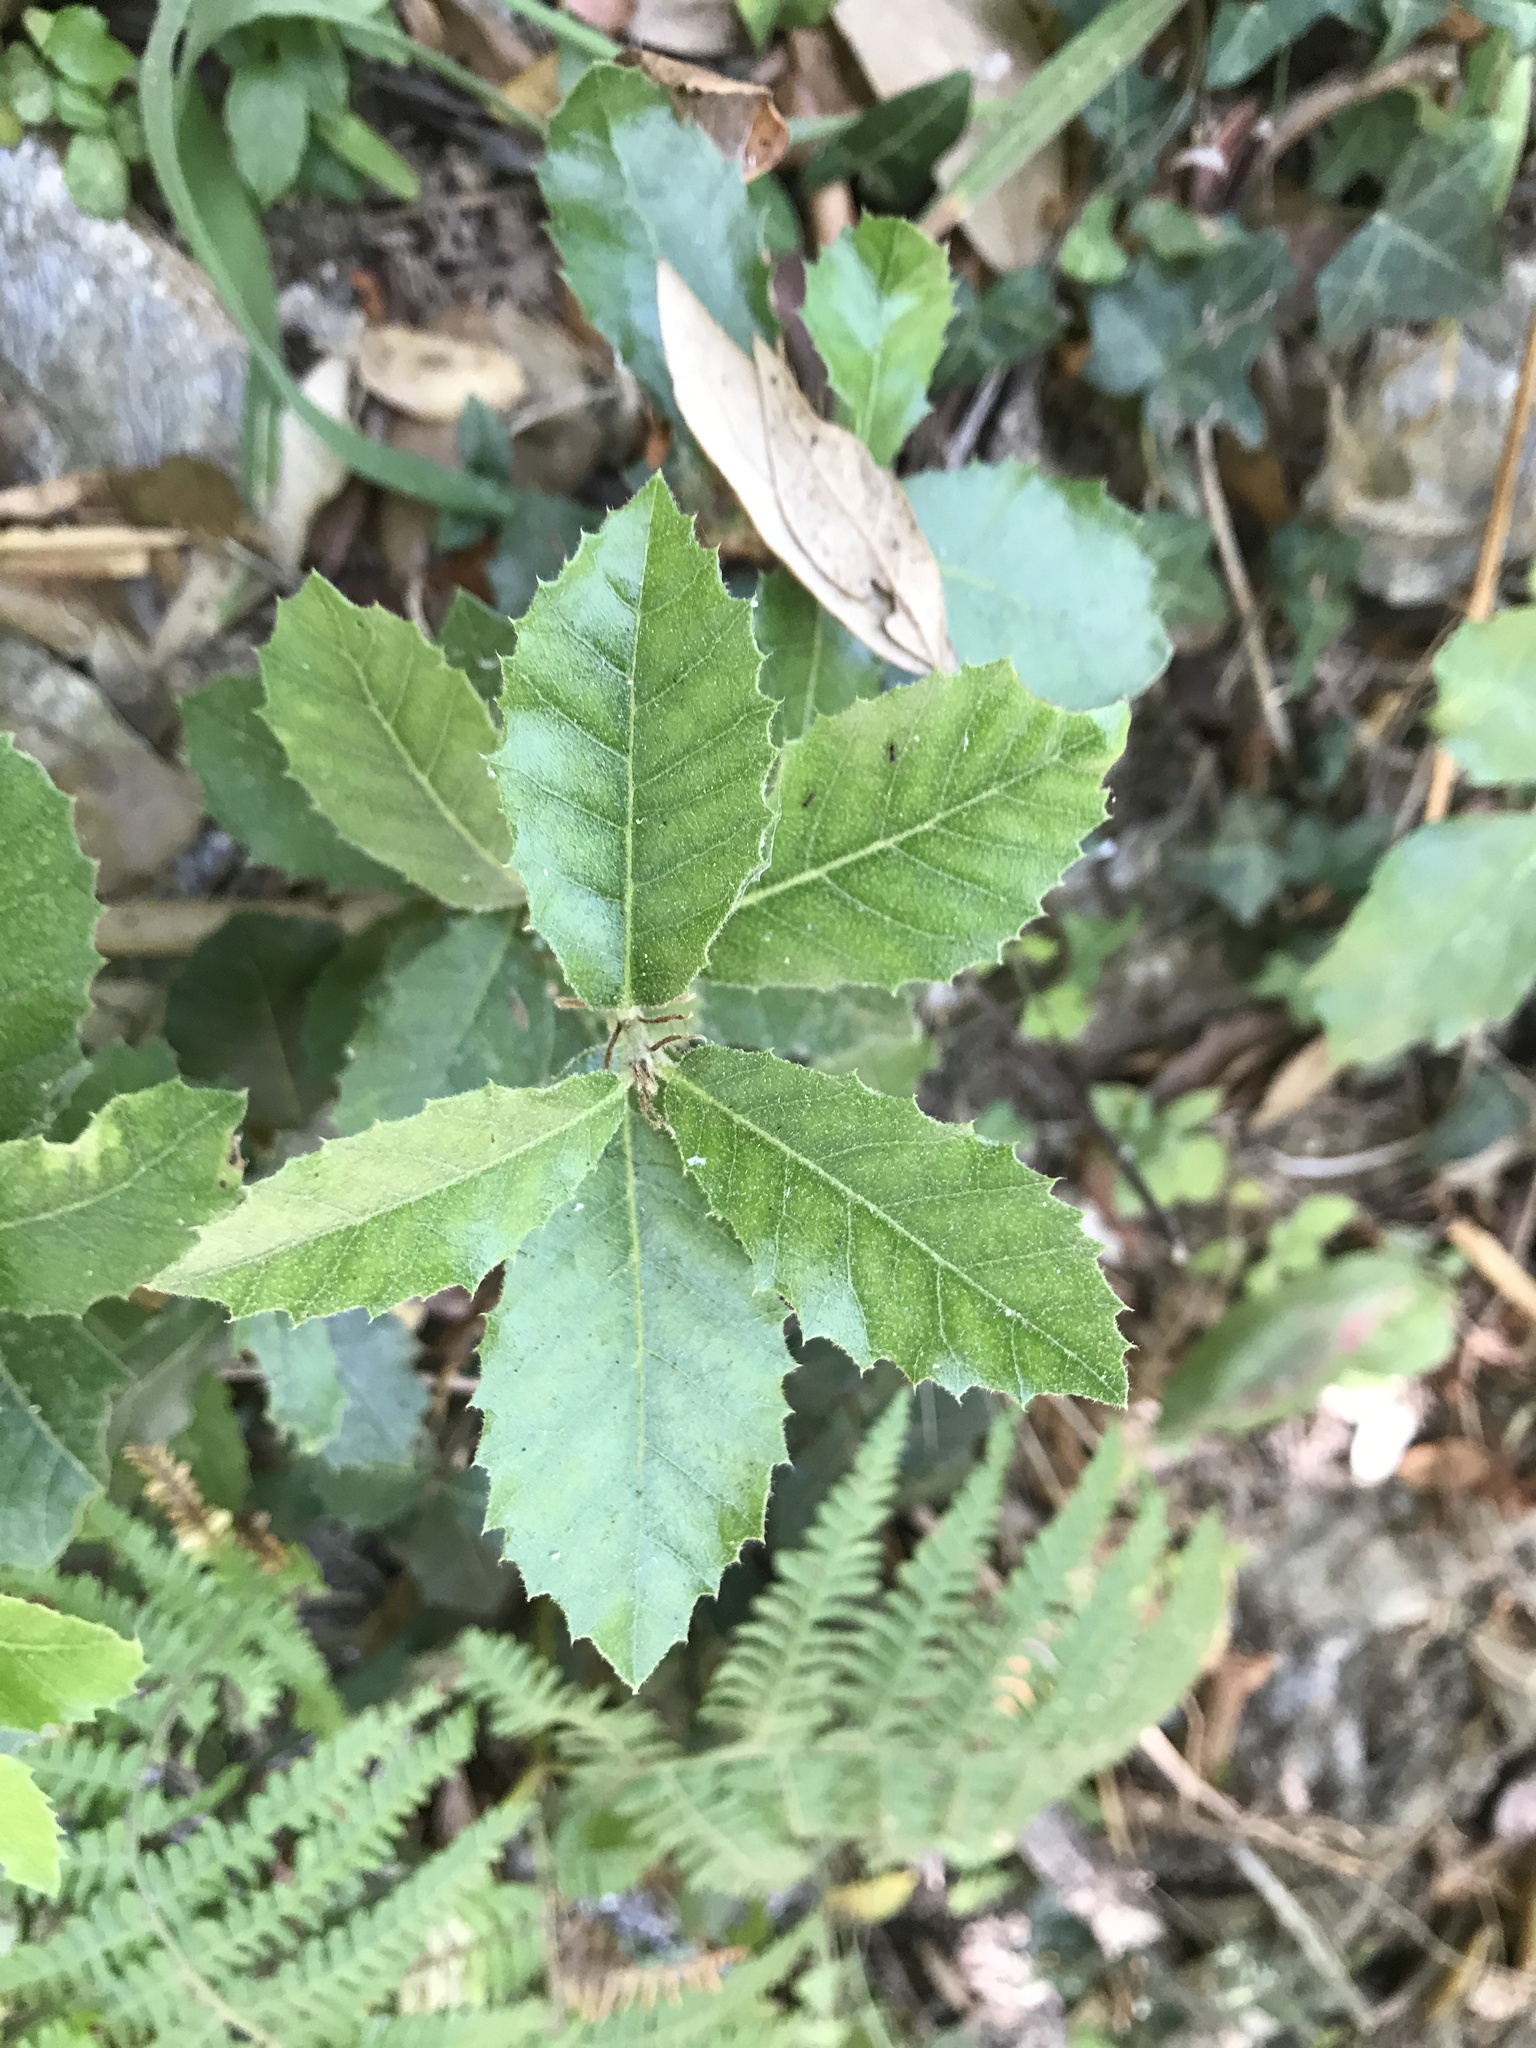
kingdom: Plantae
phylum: Tracheophyta
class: Magnoliopsida
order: Fagales
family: Fagaceae
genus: Quercus
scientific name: Quercus ilex
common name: Evergreen oak
